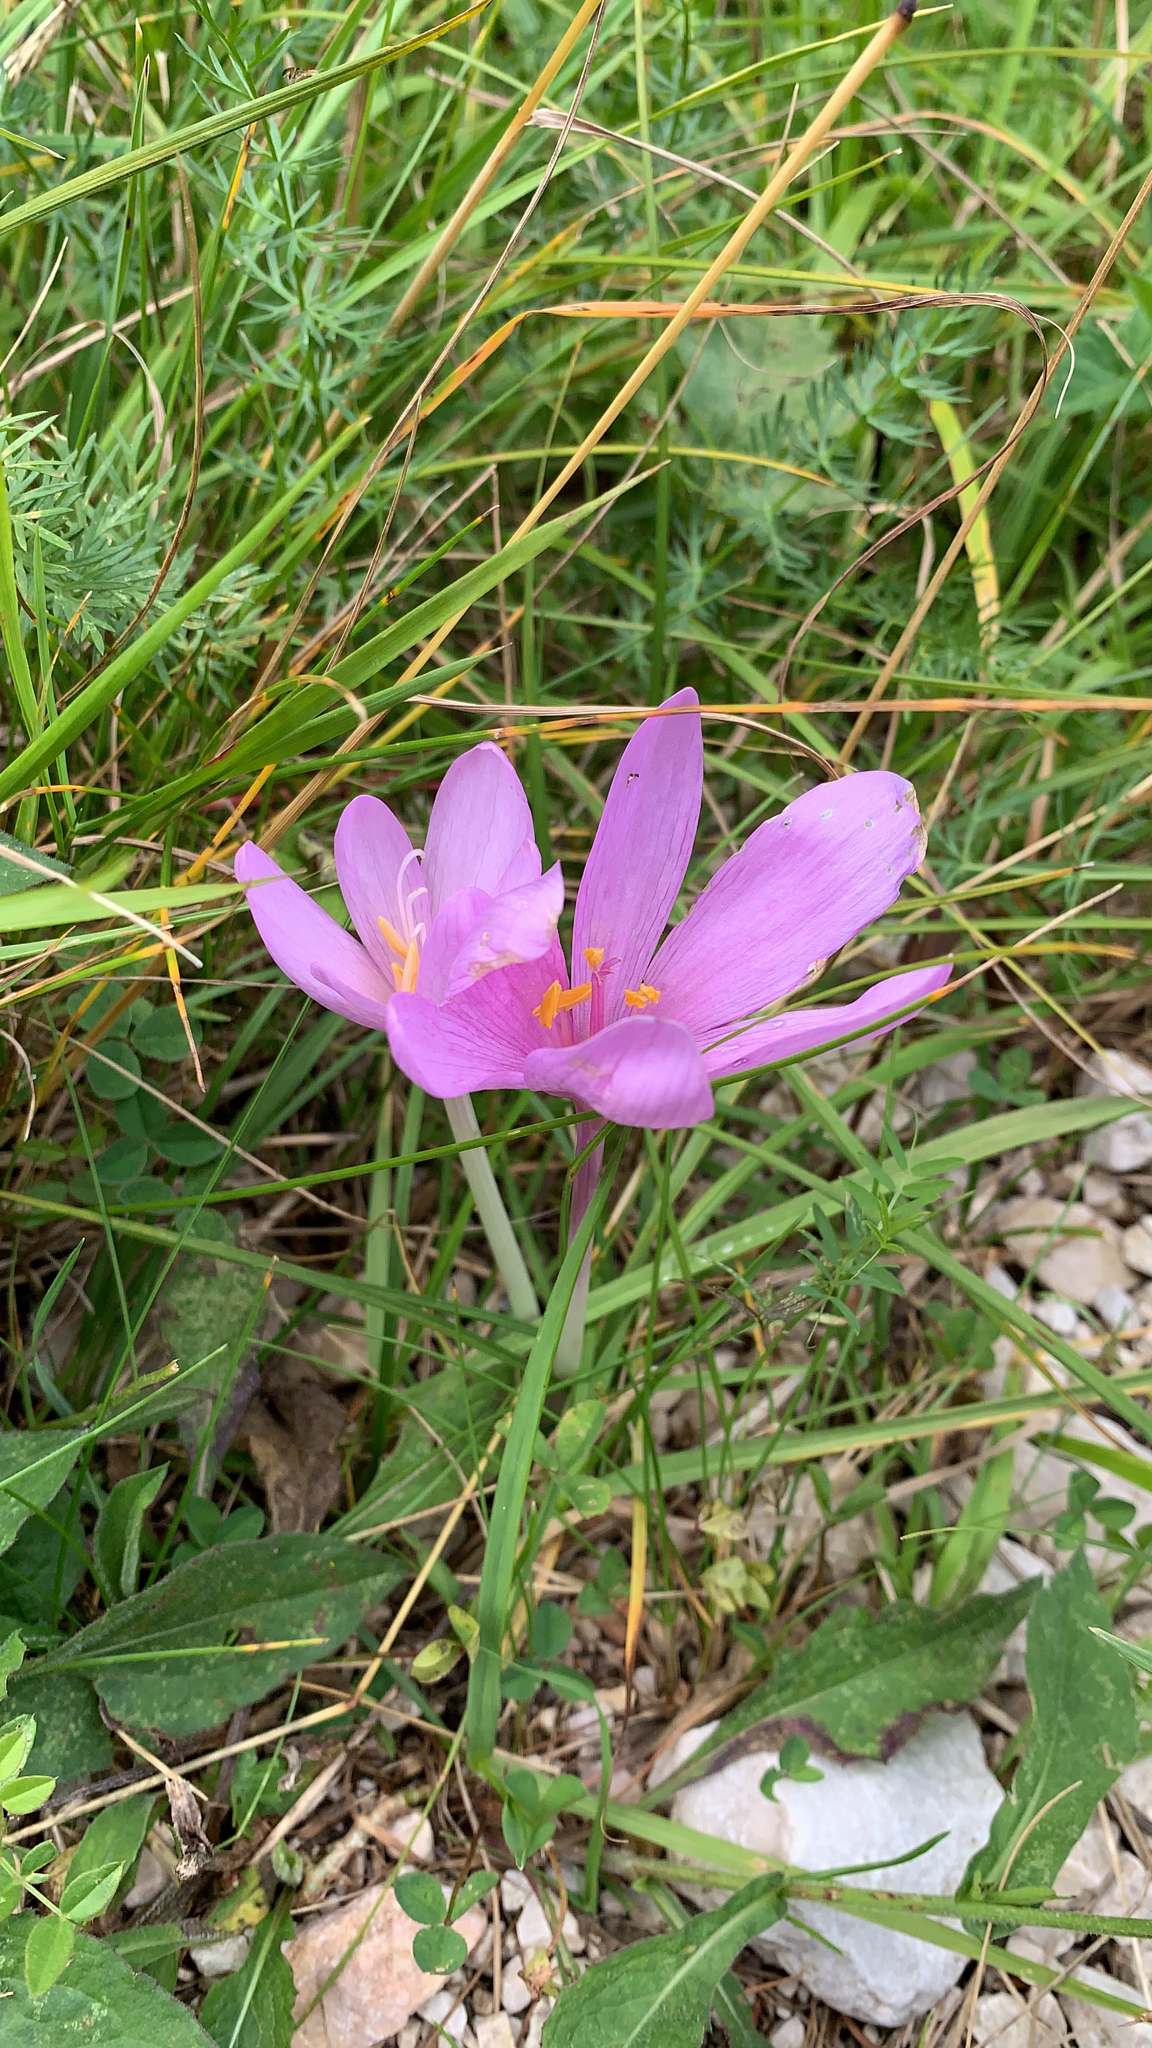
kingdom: Plantae
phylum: Tracheophyta
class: Liliopsida
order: Liliales
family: Colchicaceae
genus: Colchicum
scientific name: Colchicum autumnale
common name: Autumn crocus
